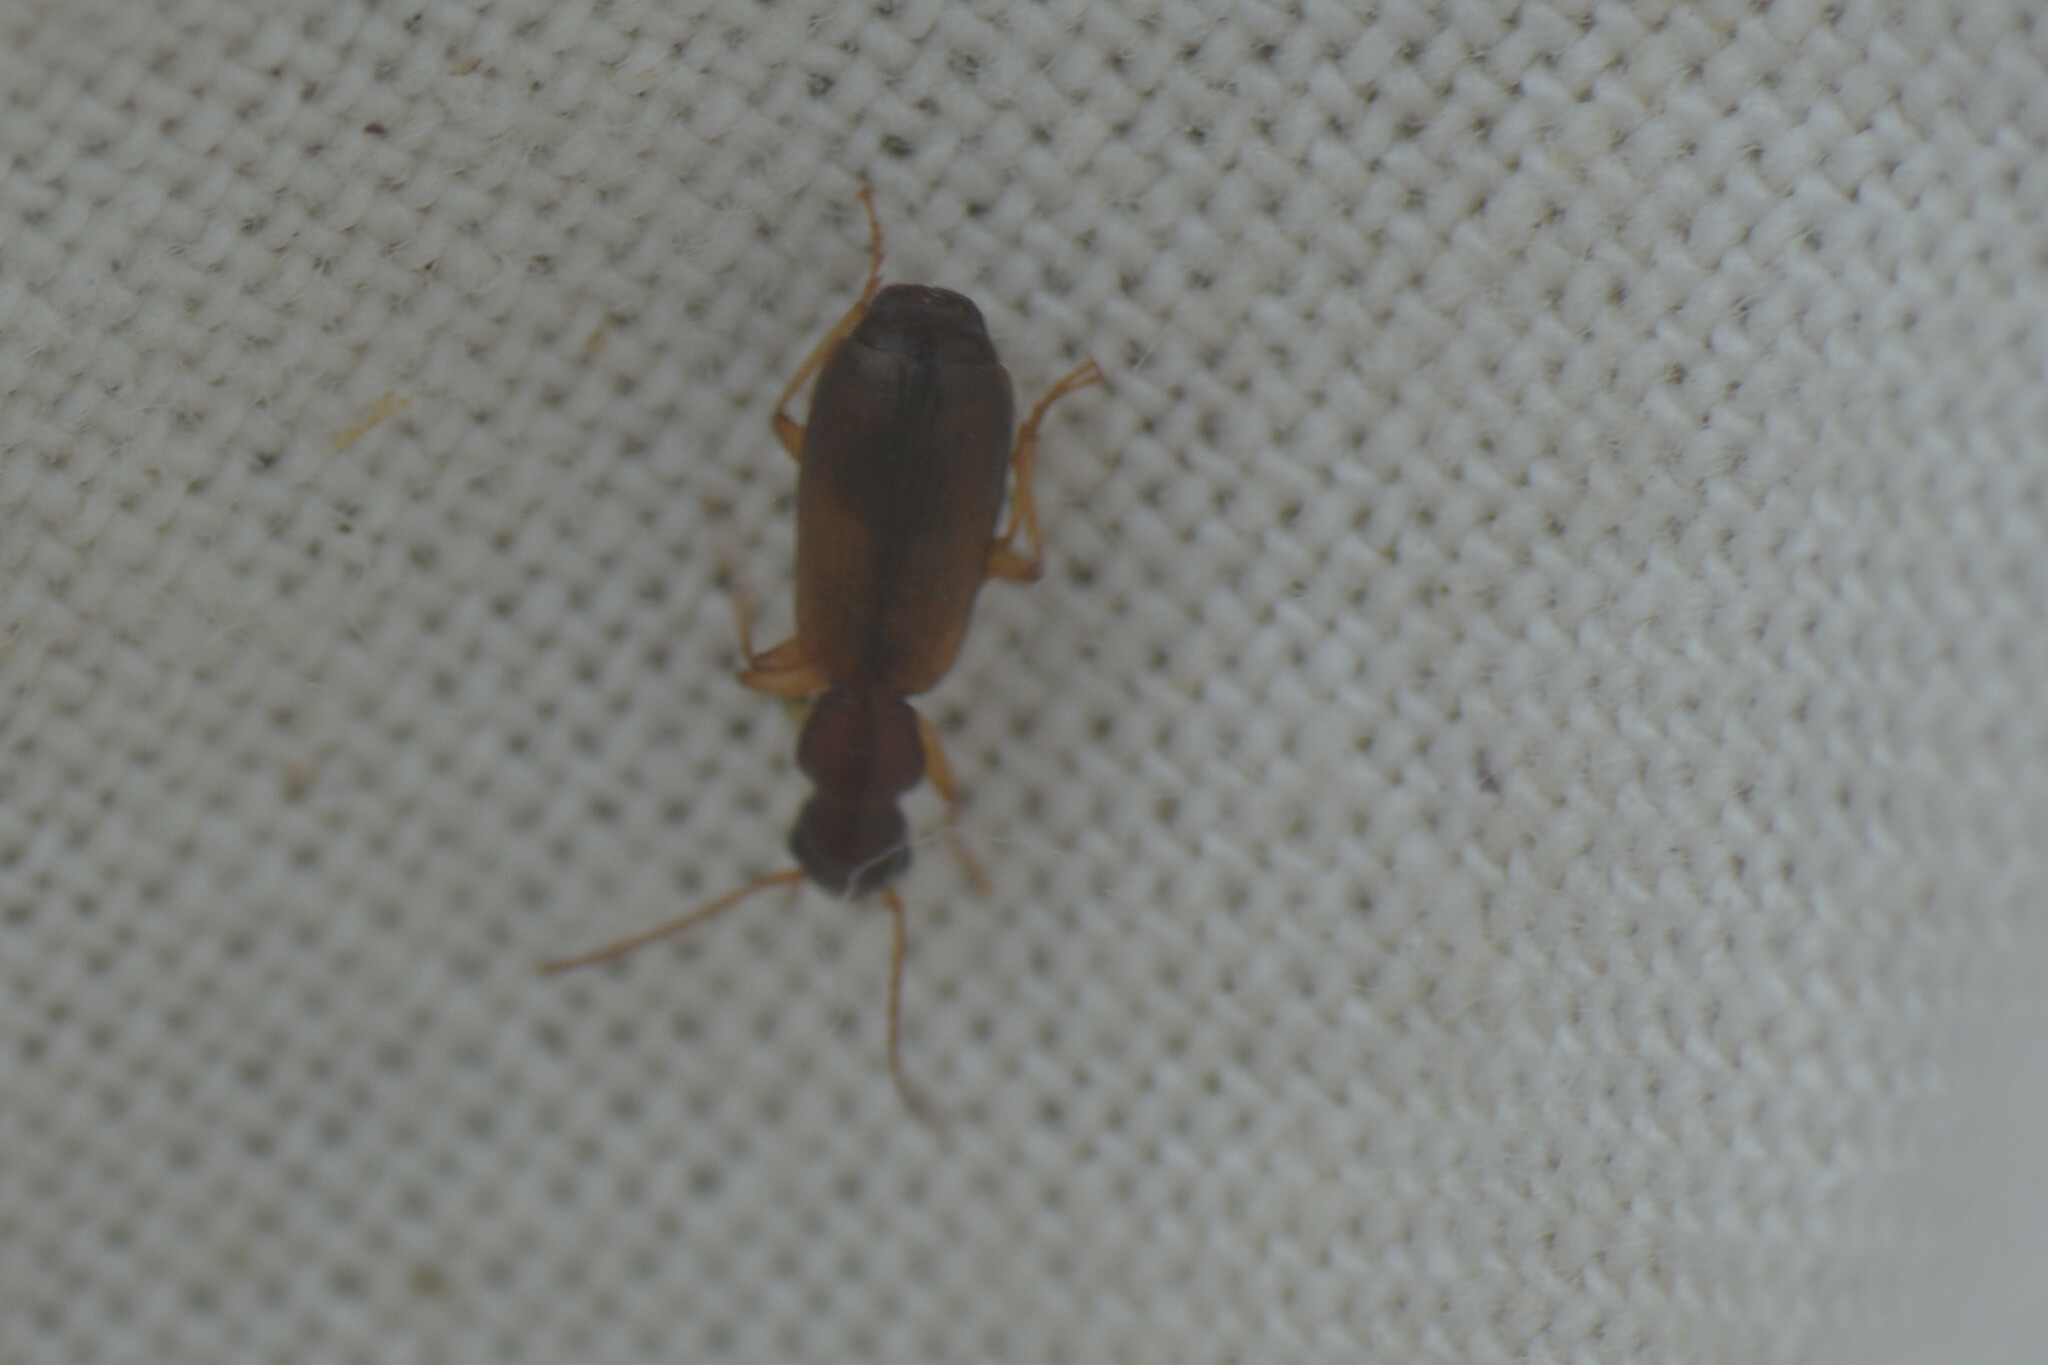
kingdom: Animalia
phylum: Arthropoda
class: Insecta
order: Coleoptera
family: Carabidae
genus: Paradromius
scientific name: Paradromius linearis
